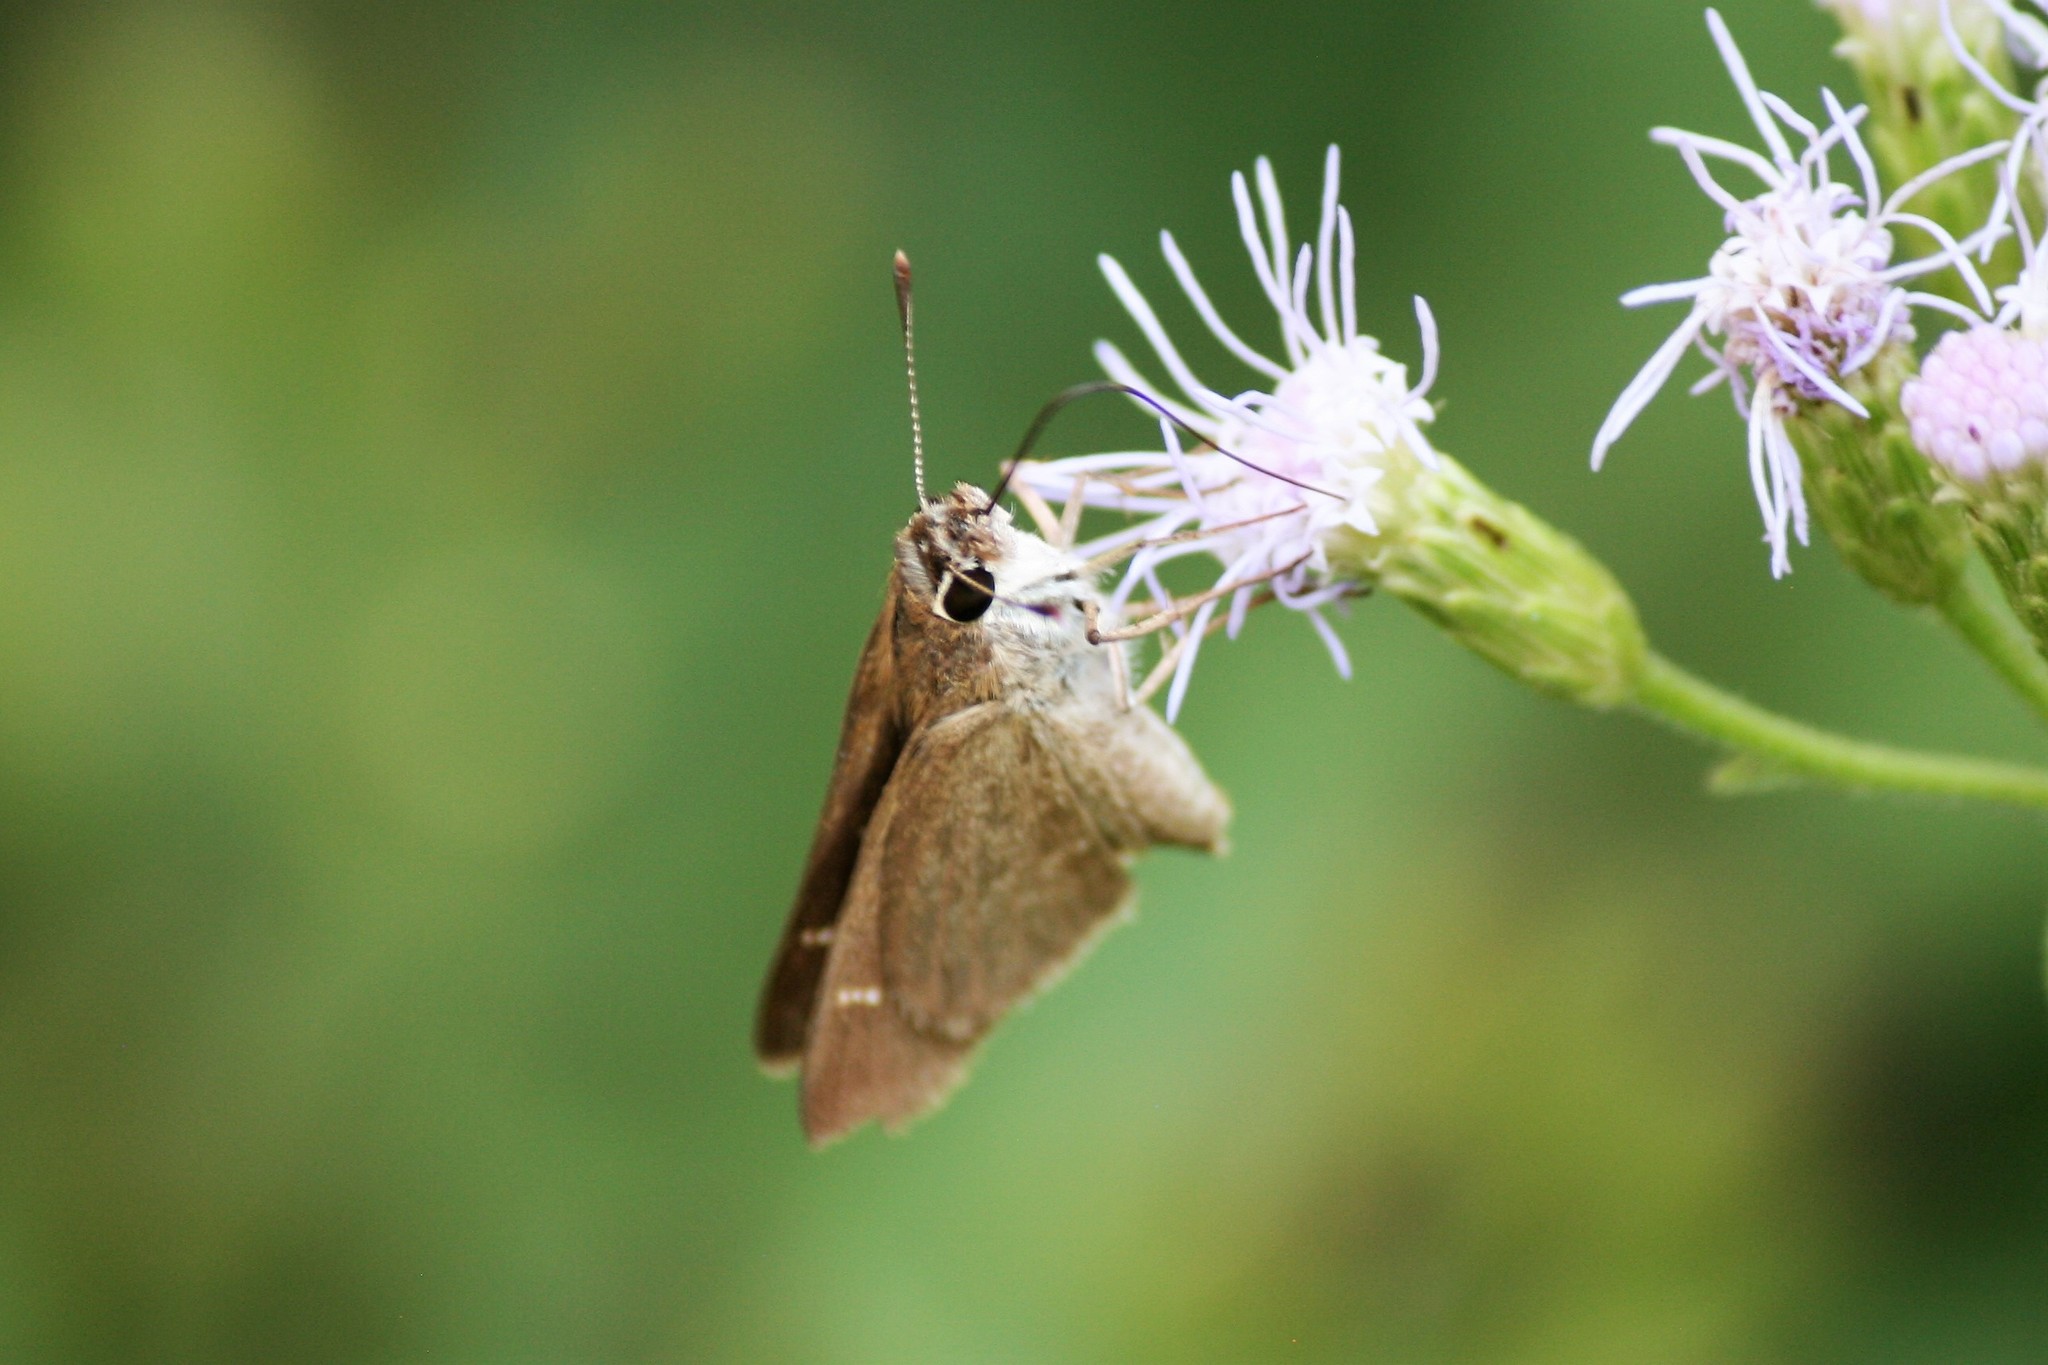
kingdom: Animalia
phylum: Arthropoda
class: Insecta
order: Lepidoptera
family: Hesperiidae
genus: Lerodea
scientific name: Lerodea eufala
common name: Eufala skipper
